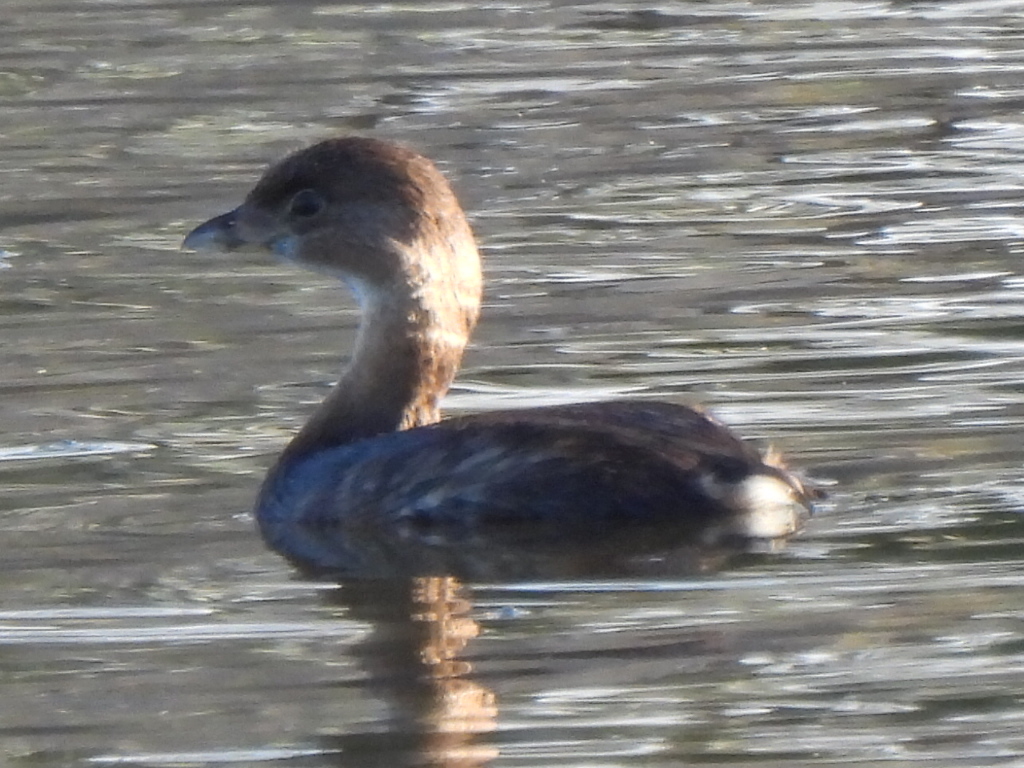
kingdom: Animalia
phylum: Chordata
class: Aves
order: Podicipediformes
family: Podicipedidae
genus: Podilymbus
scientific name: Podilymbus podiceps
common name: Pied-billed grebe
